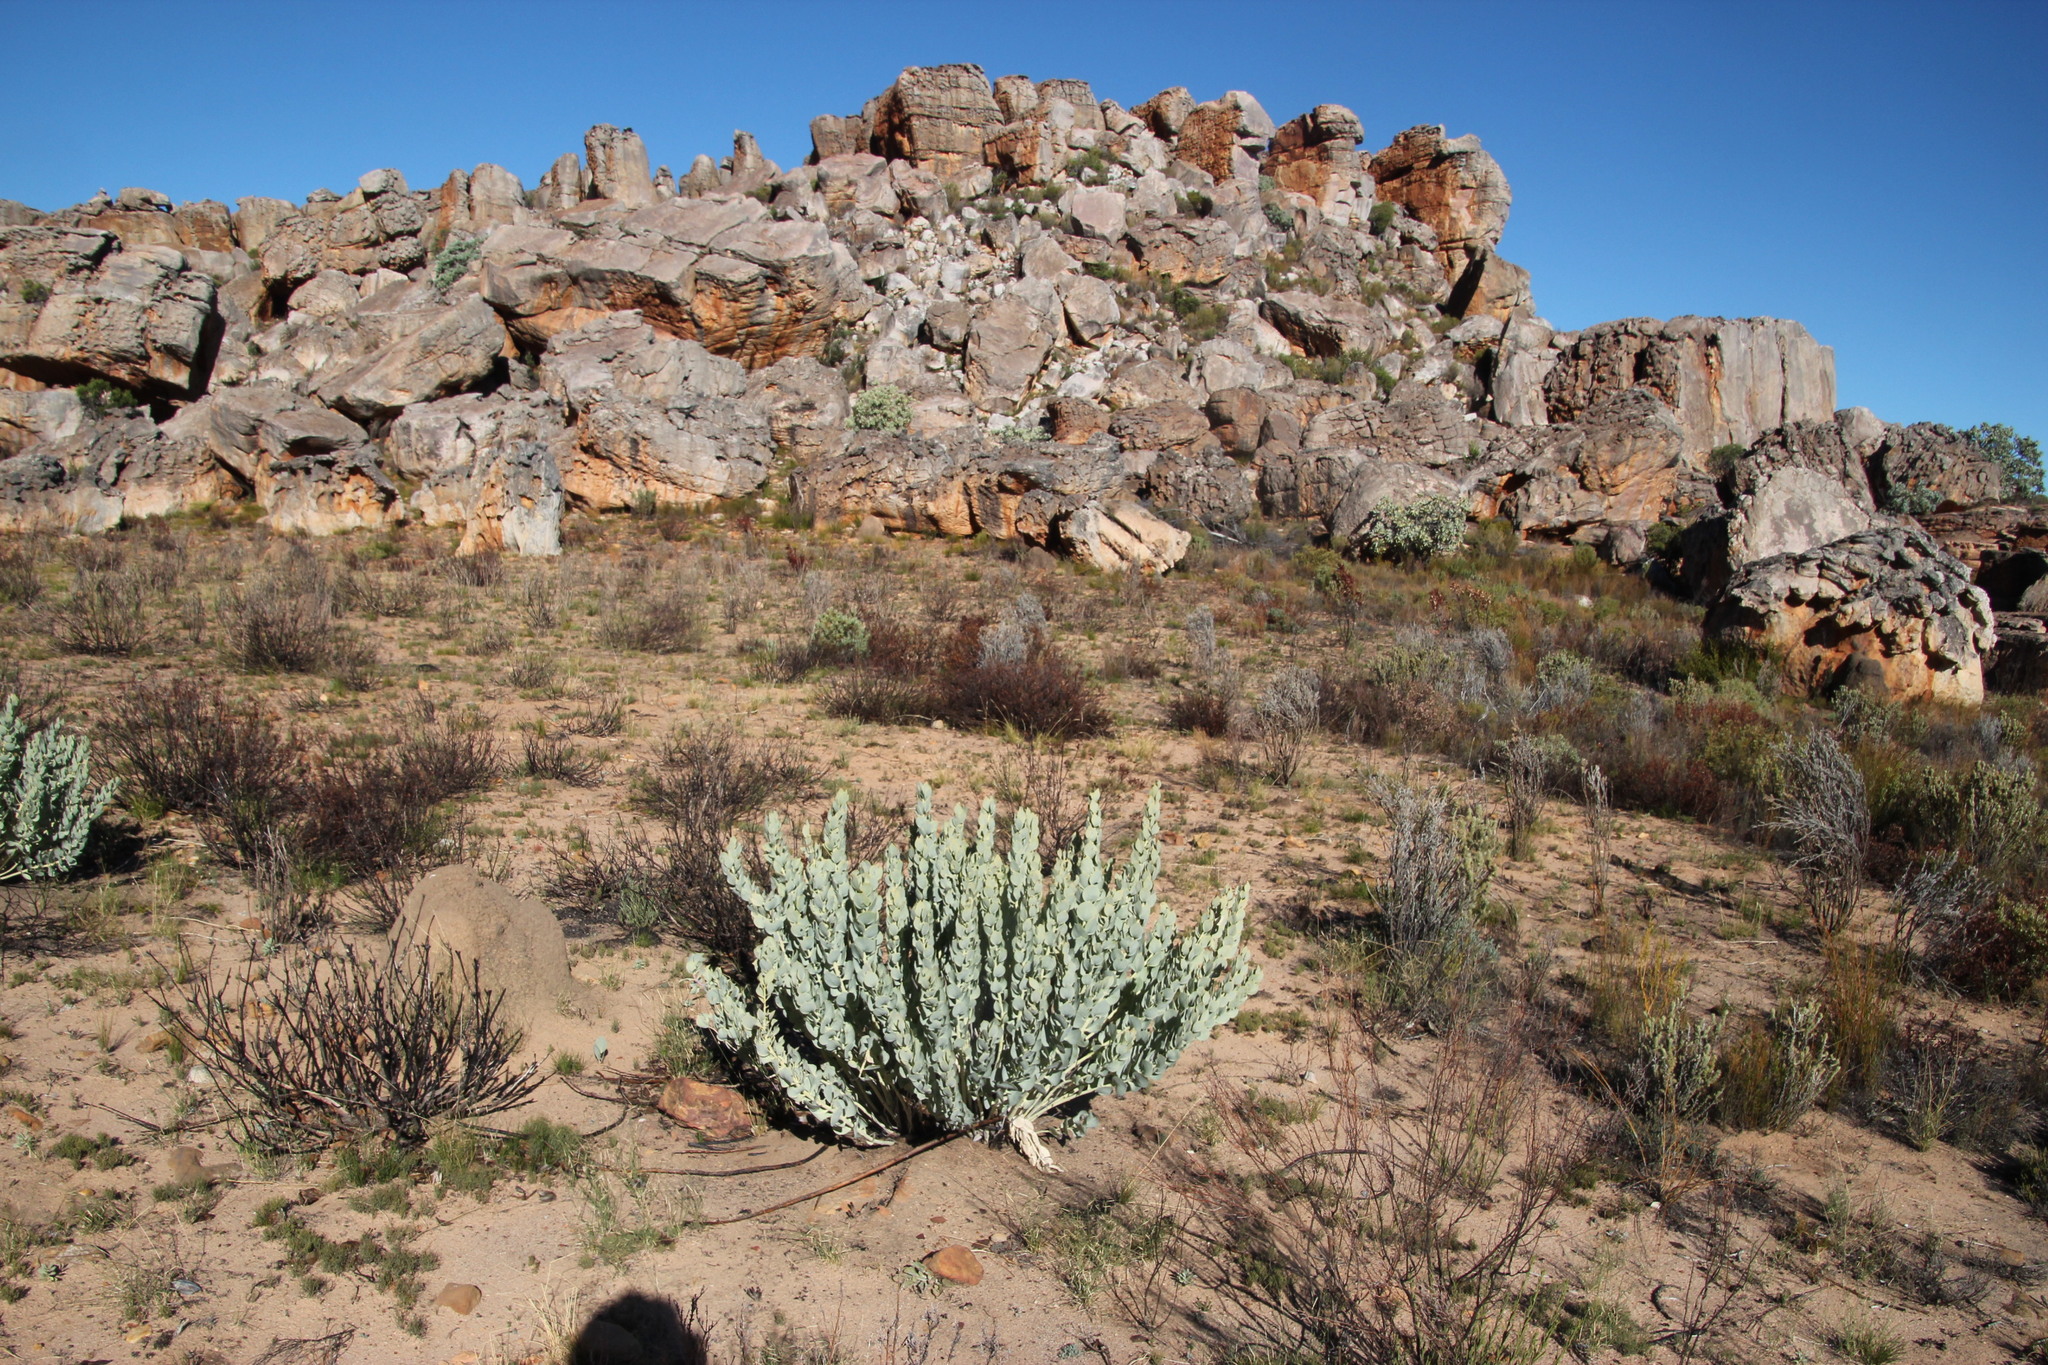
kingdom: Plantae
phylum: Tracheophyta
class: Magnoliopsida
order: Fabales
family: Fabaceae
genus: Rafnia
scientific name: Rafnia triflora
